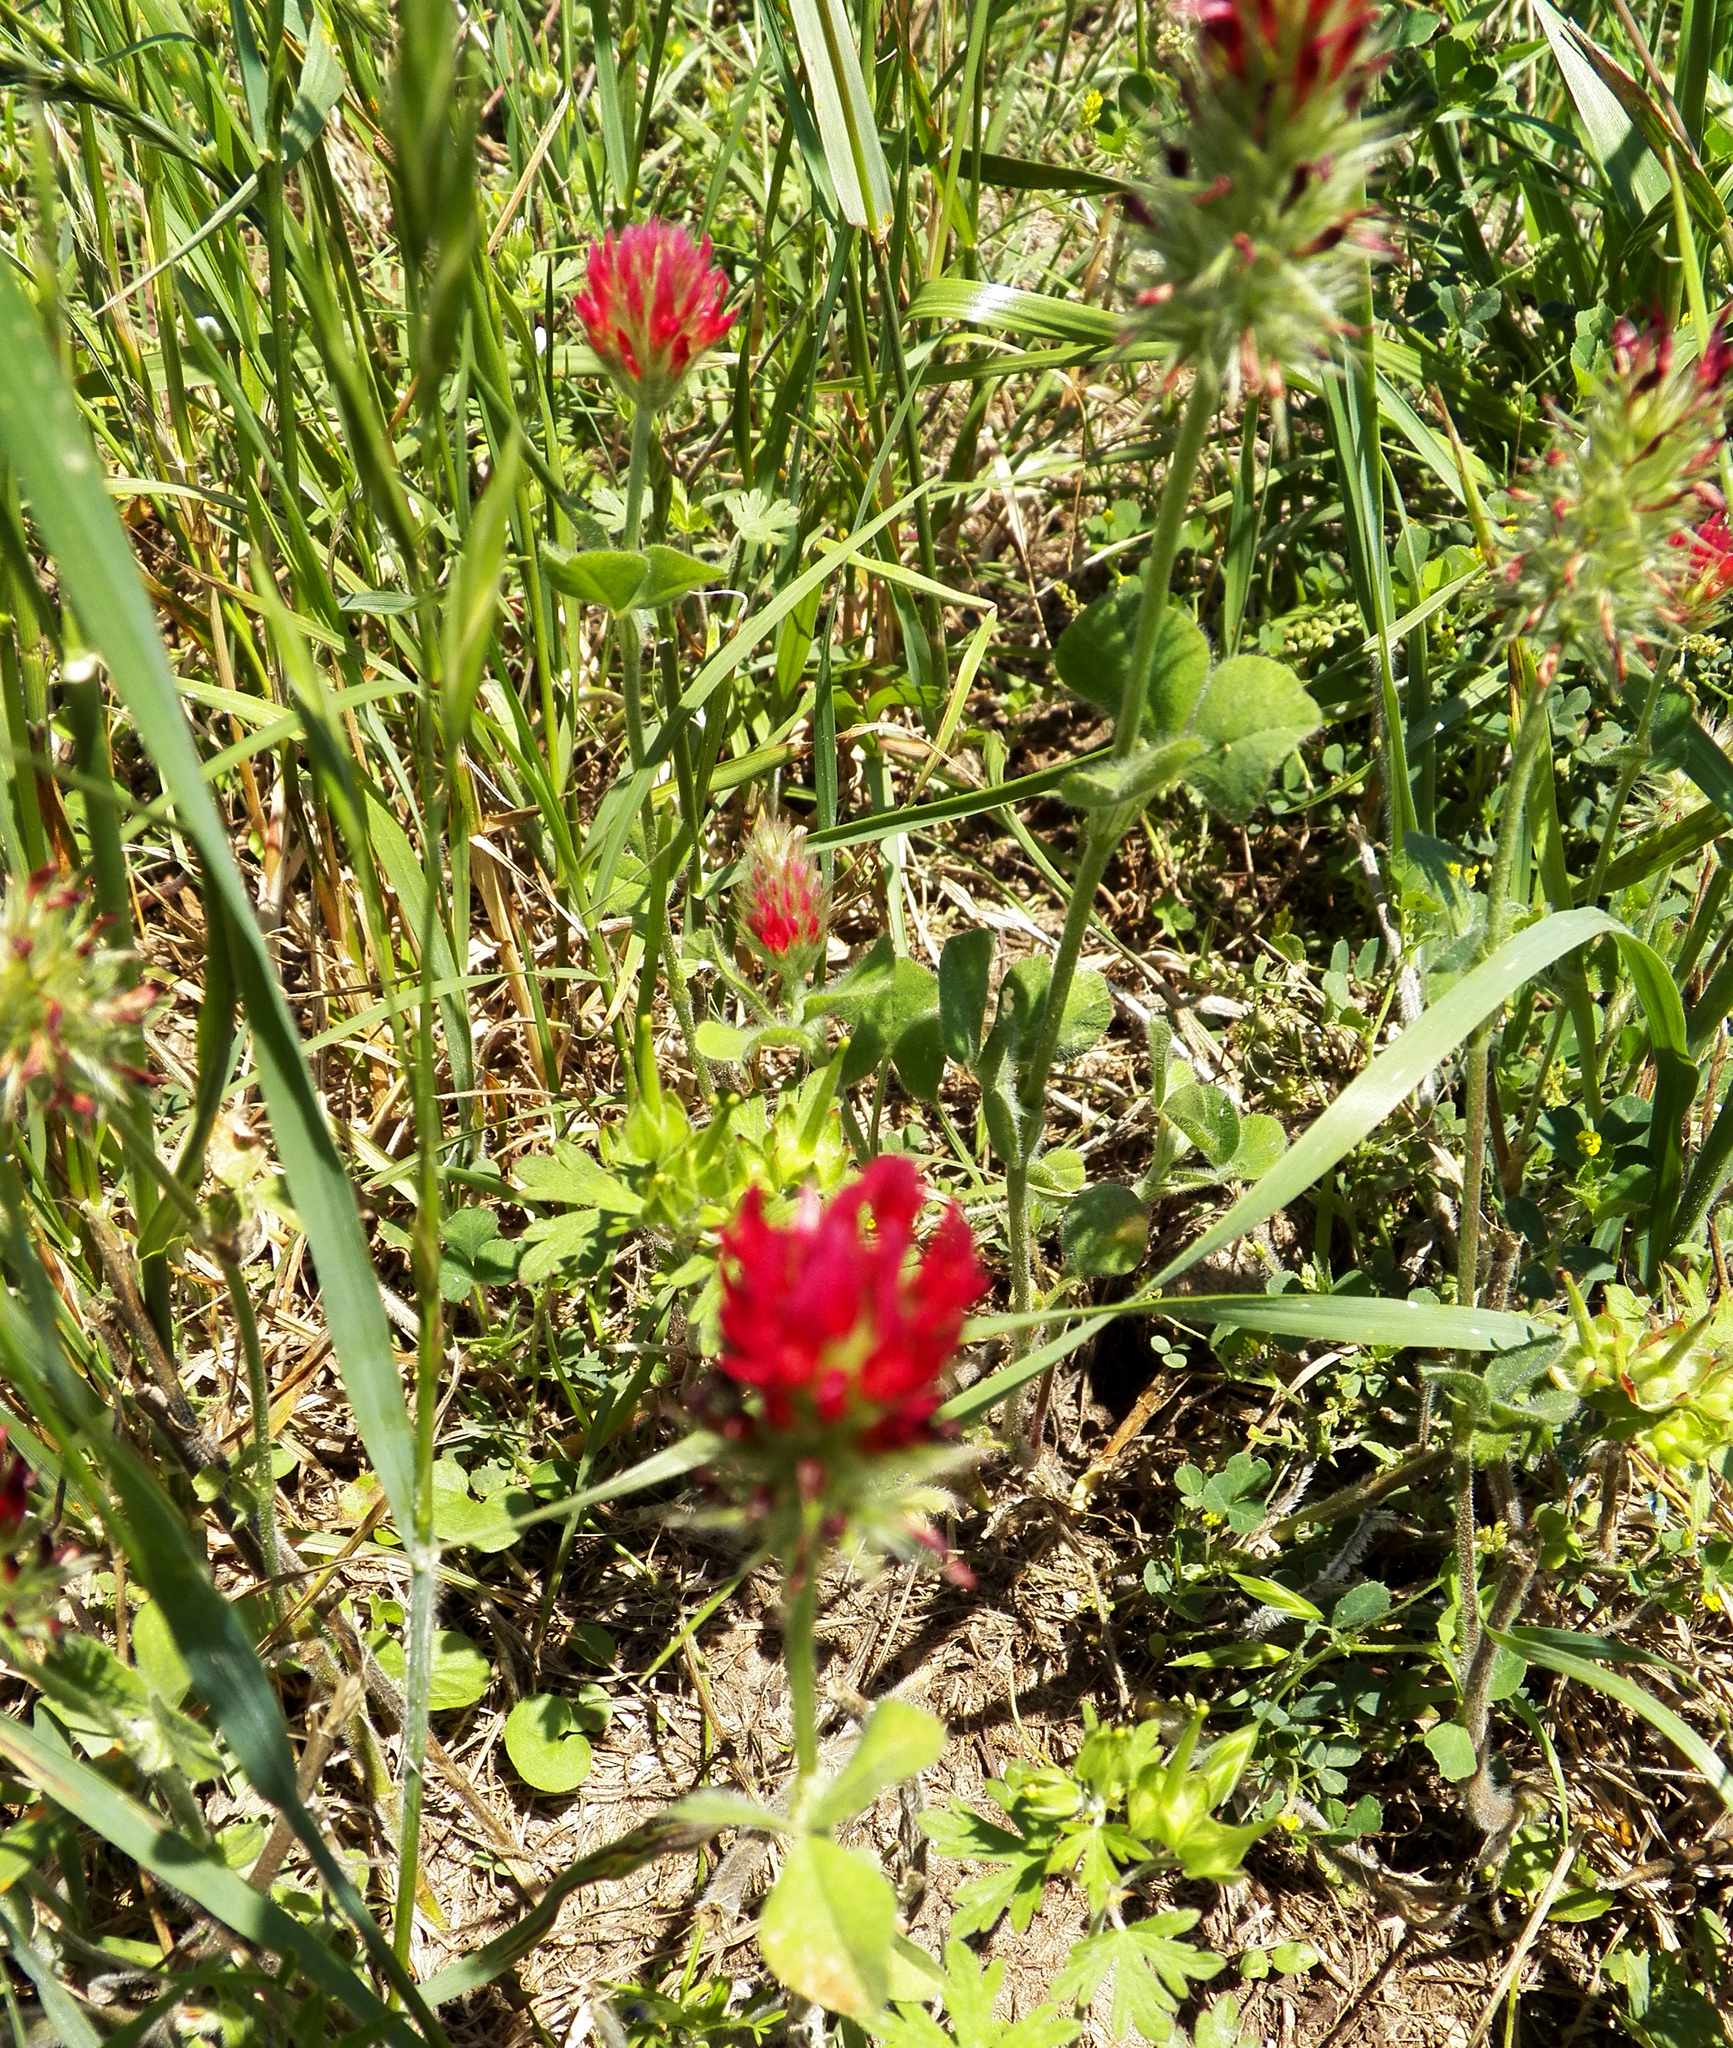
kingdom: Plantae
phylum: Tracheophyta
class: Magnoliopsida
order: Fabales
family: Fabaceae
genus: Trifolium
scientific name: Trifolium incarnatum
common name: Crimson clover
